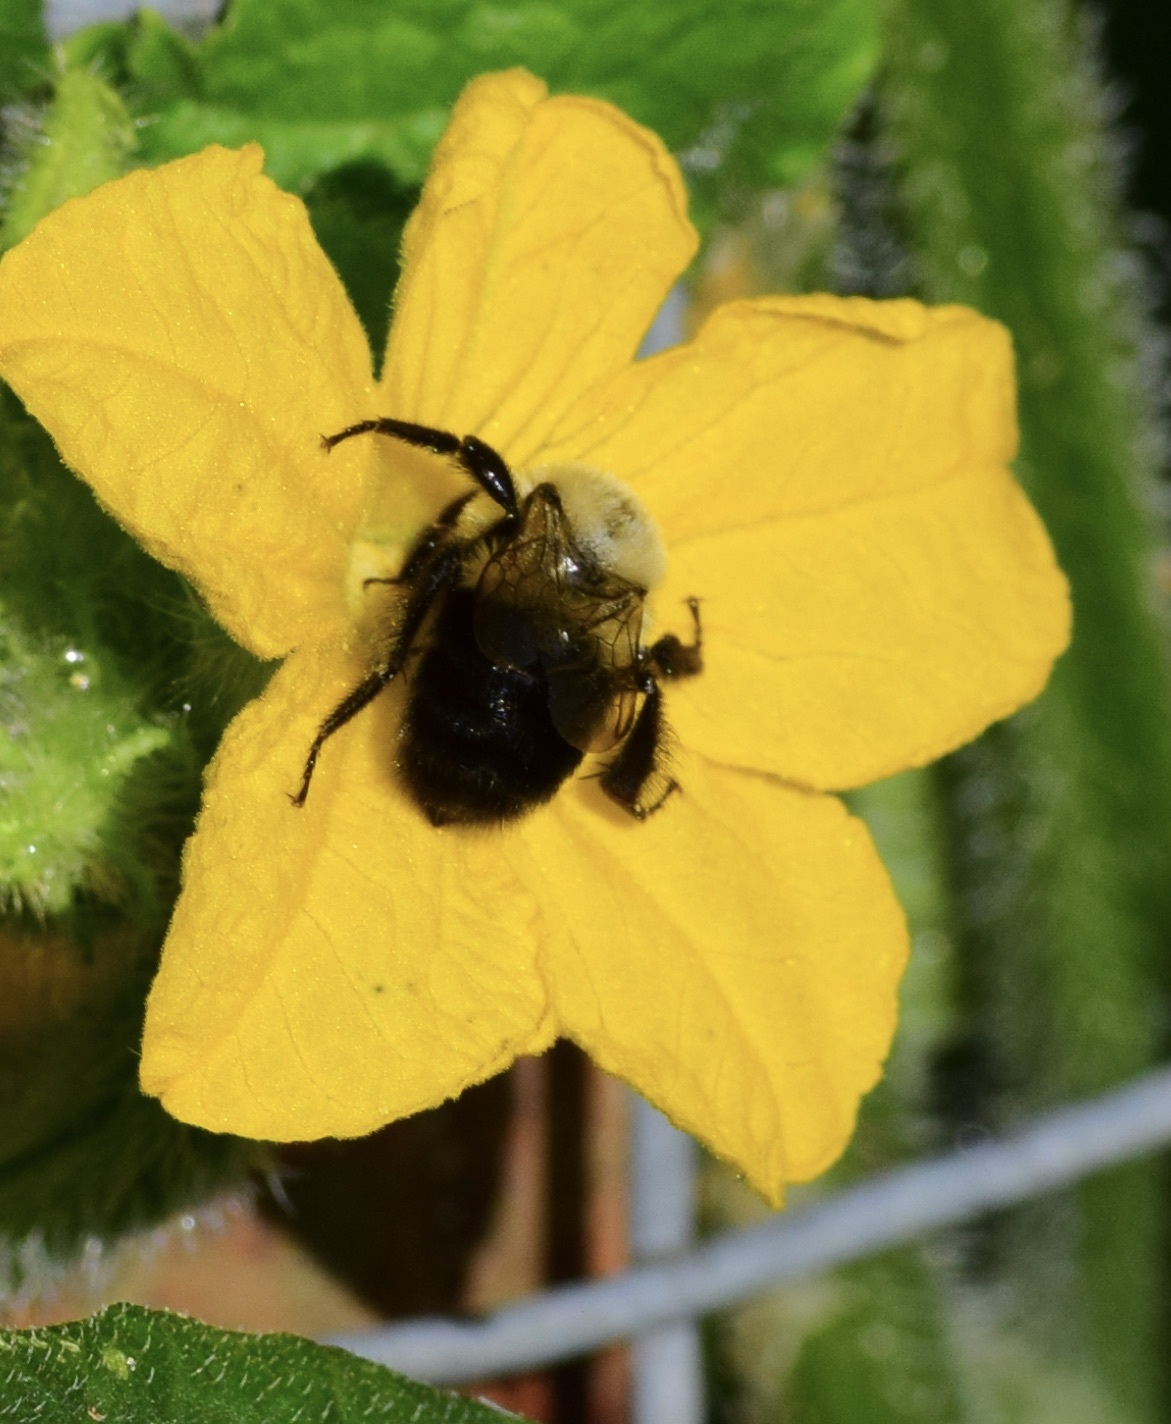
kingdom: Animalia
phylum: Arthropoda
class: Insecta
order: Hymenoptera
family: Apidae
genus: Bombus
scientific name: Bombus impatiens
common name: Common eastern bumble bee
